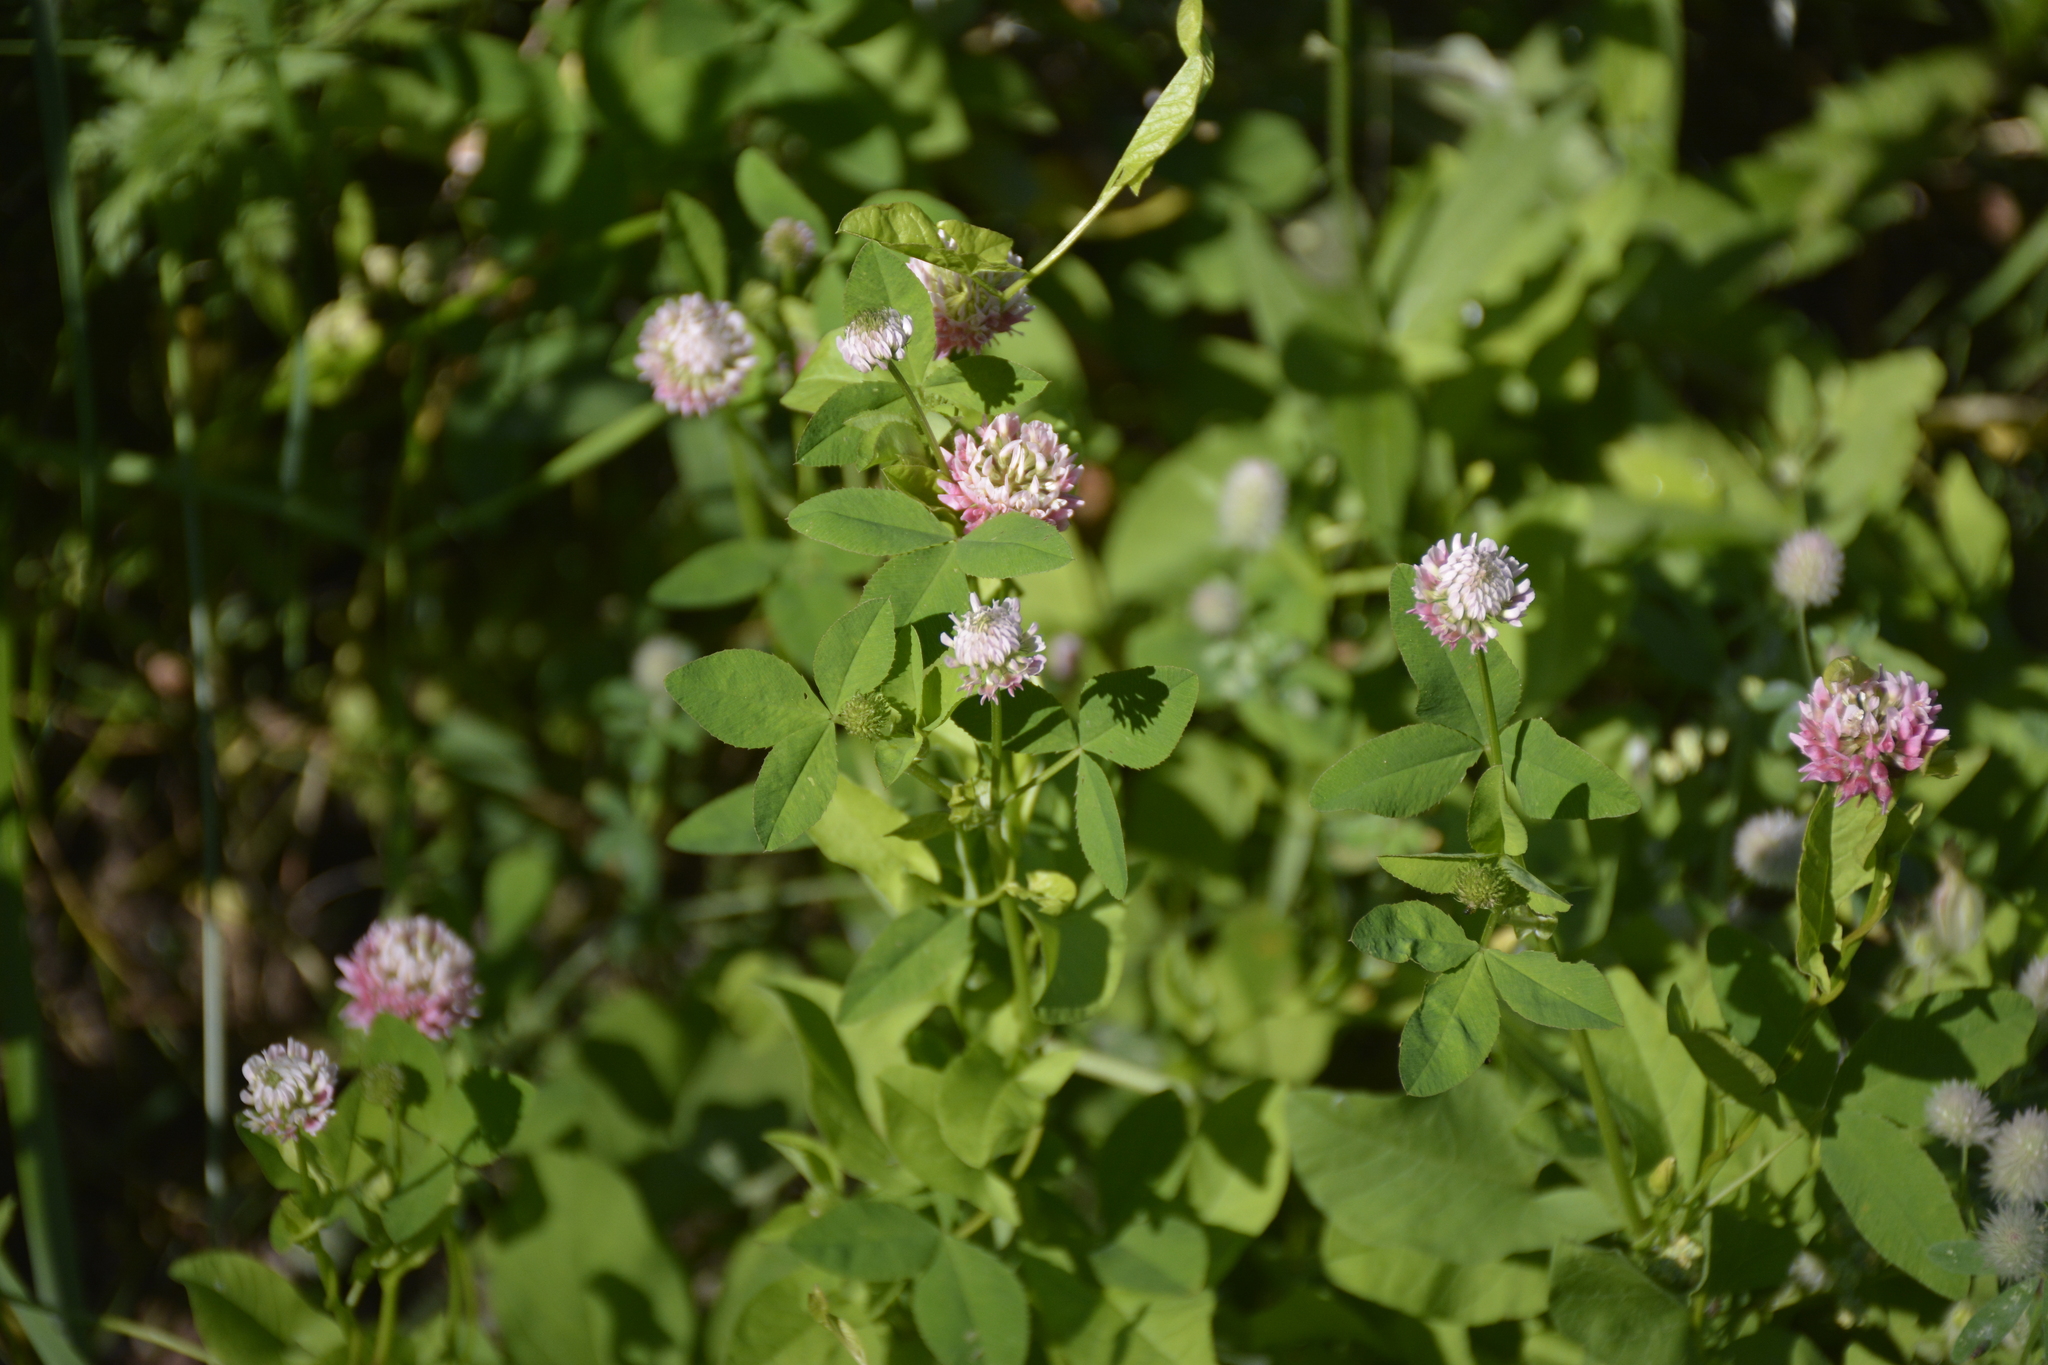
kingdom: Plantae
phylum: Tracheophyta
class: Magnoliopsida
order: Fabales
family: Fabaceae
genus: Trifolium
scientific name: Trifolium hybridum
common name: Alsike clover
